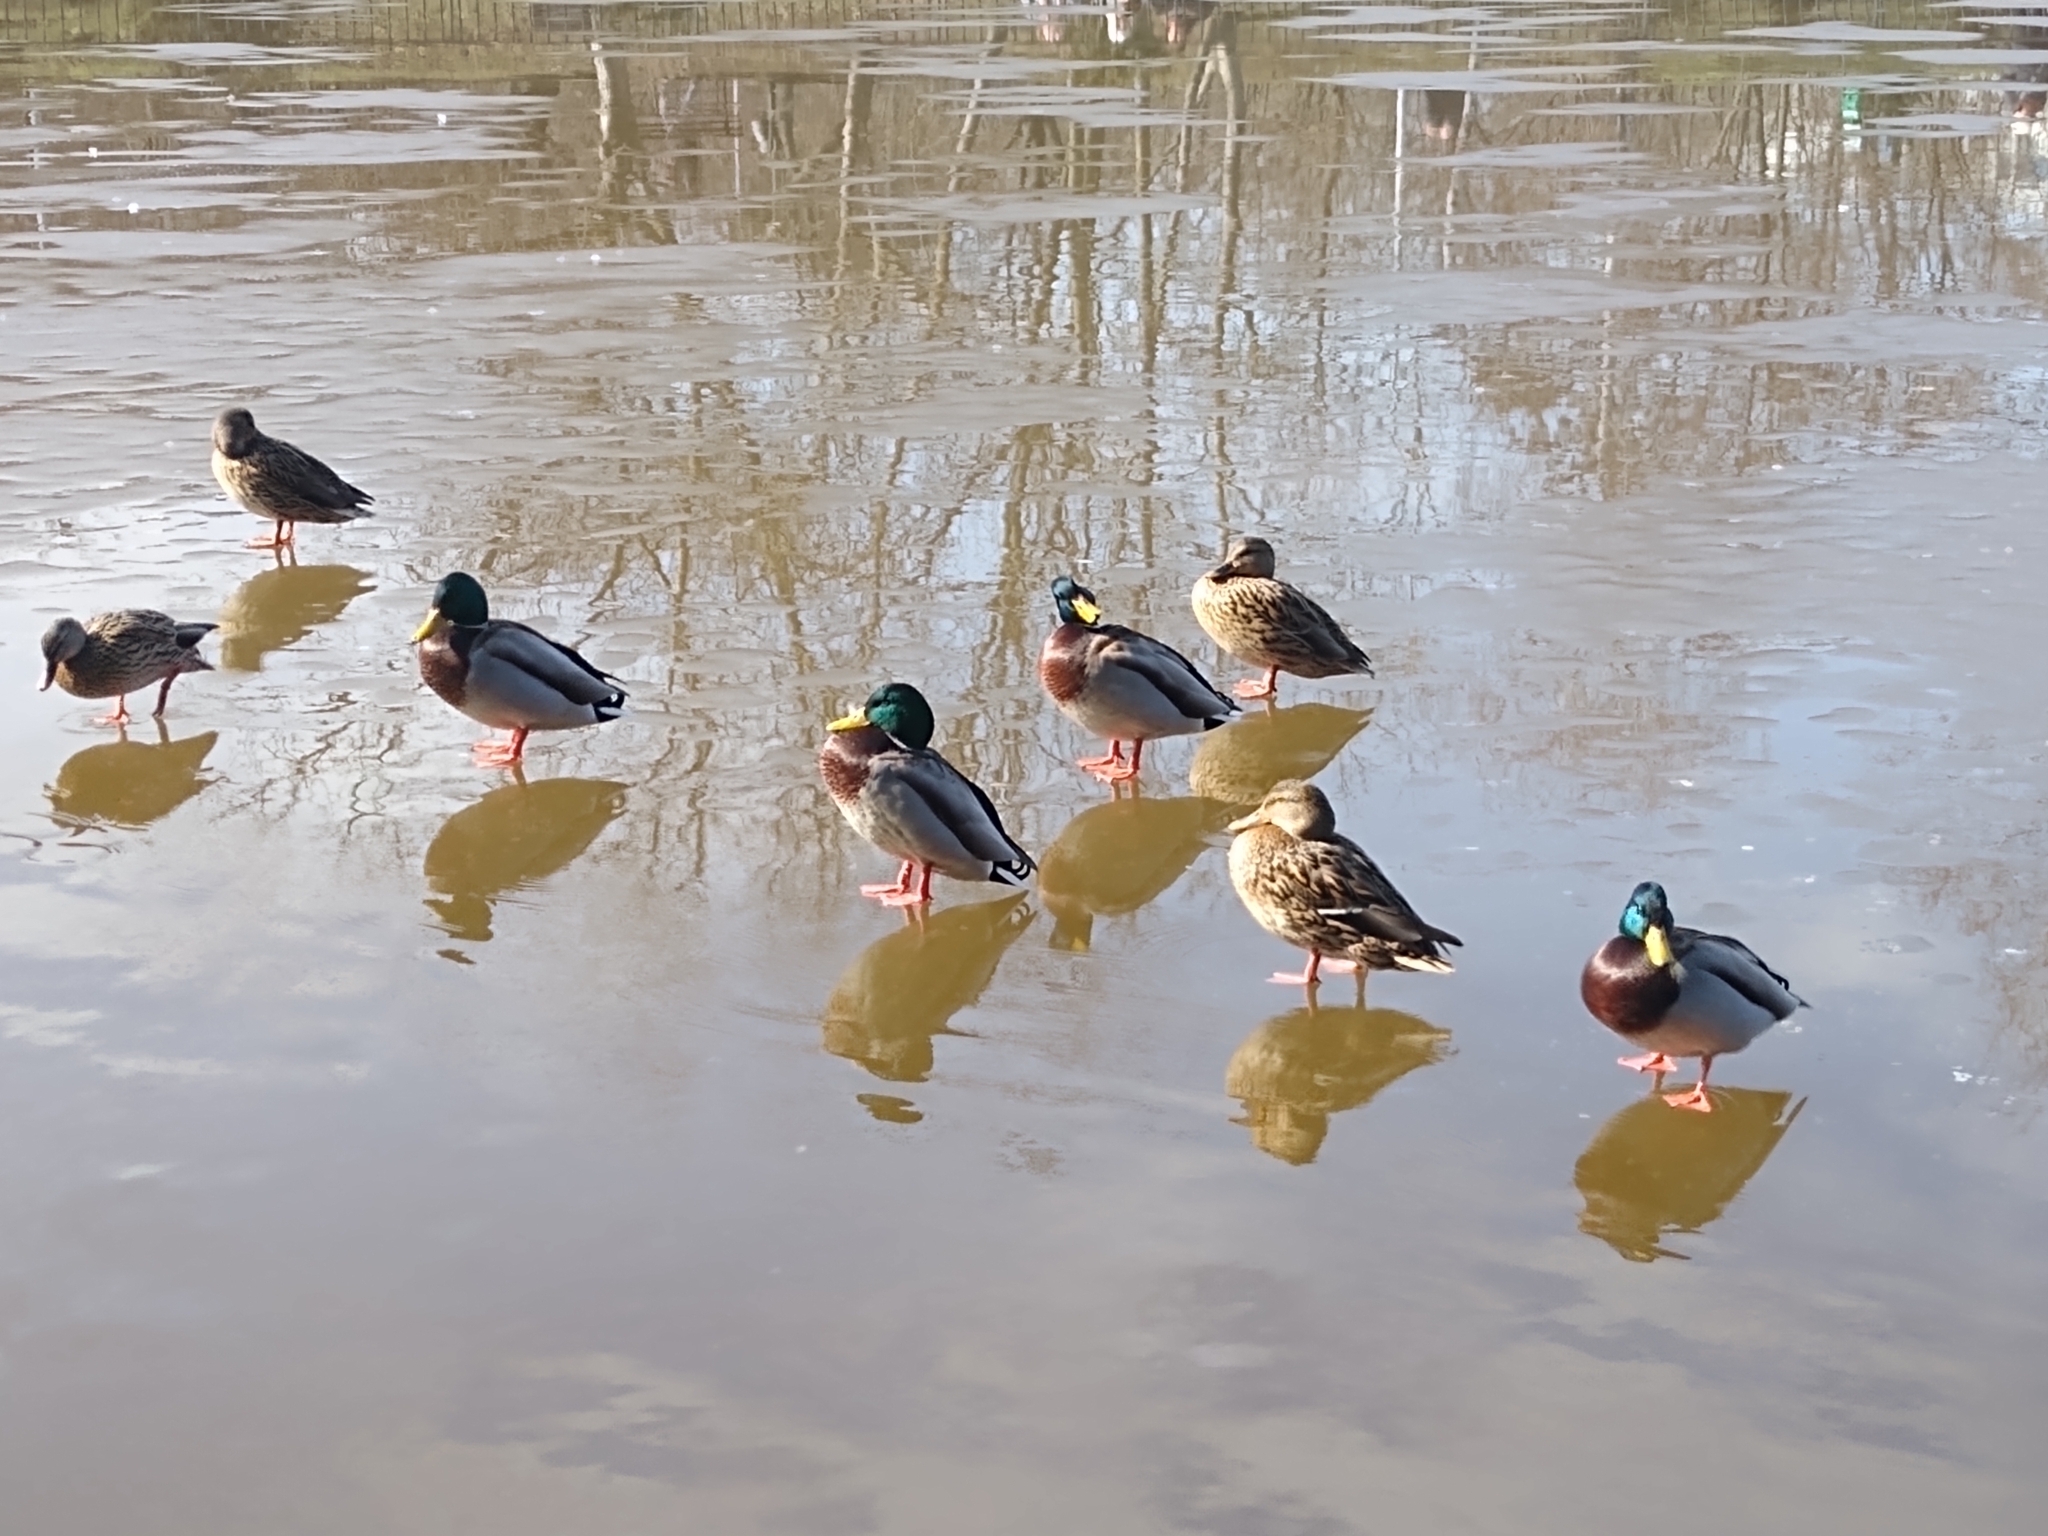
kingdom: Animalia
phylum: Chordata
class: Aves
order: Anseriformes
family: Anatidae
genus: Anas
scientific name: Anas platyrhynchos
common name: Mallard
